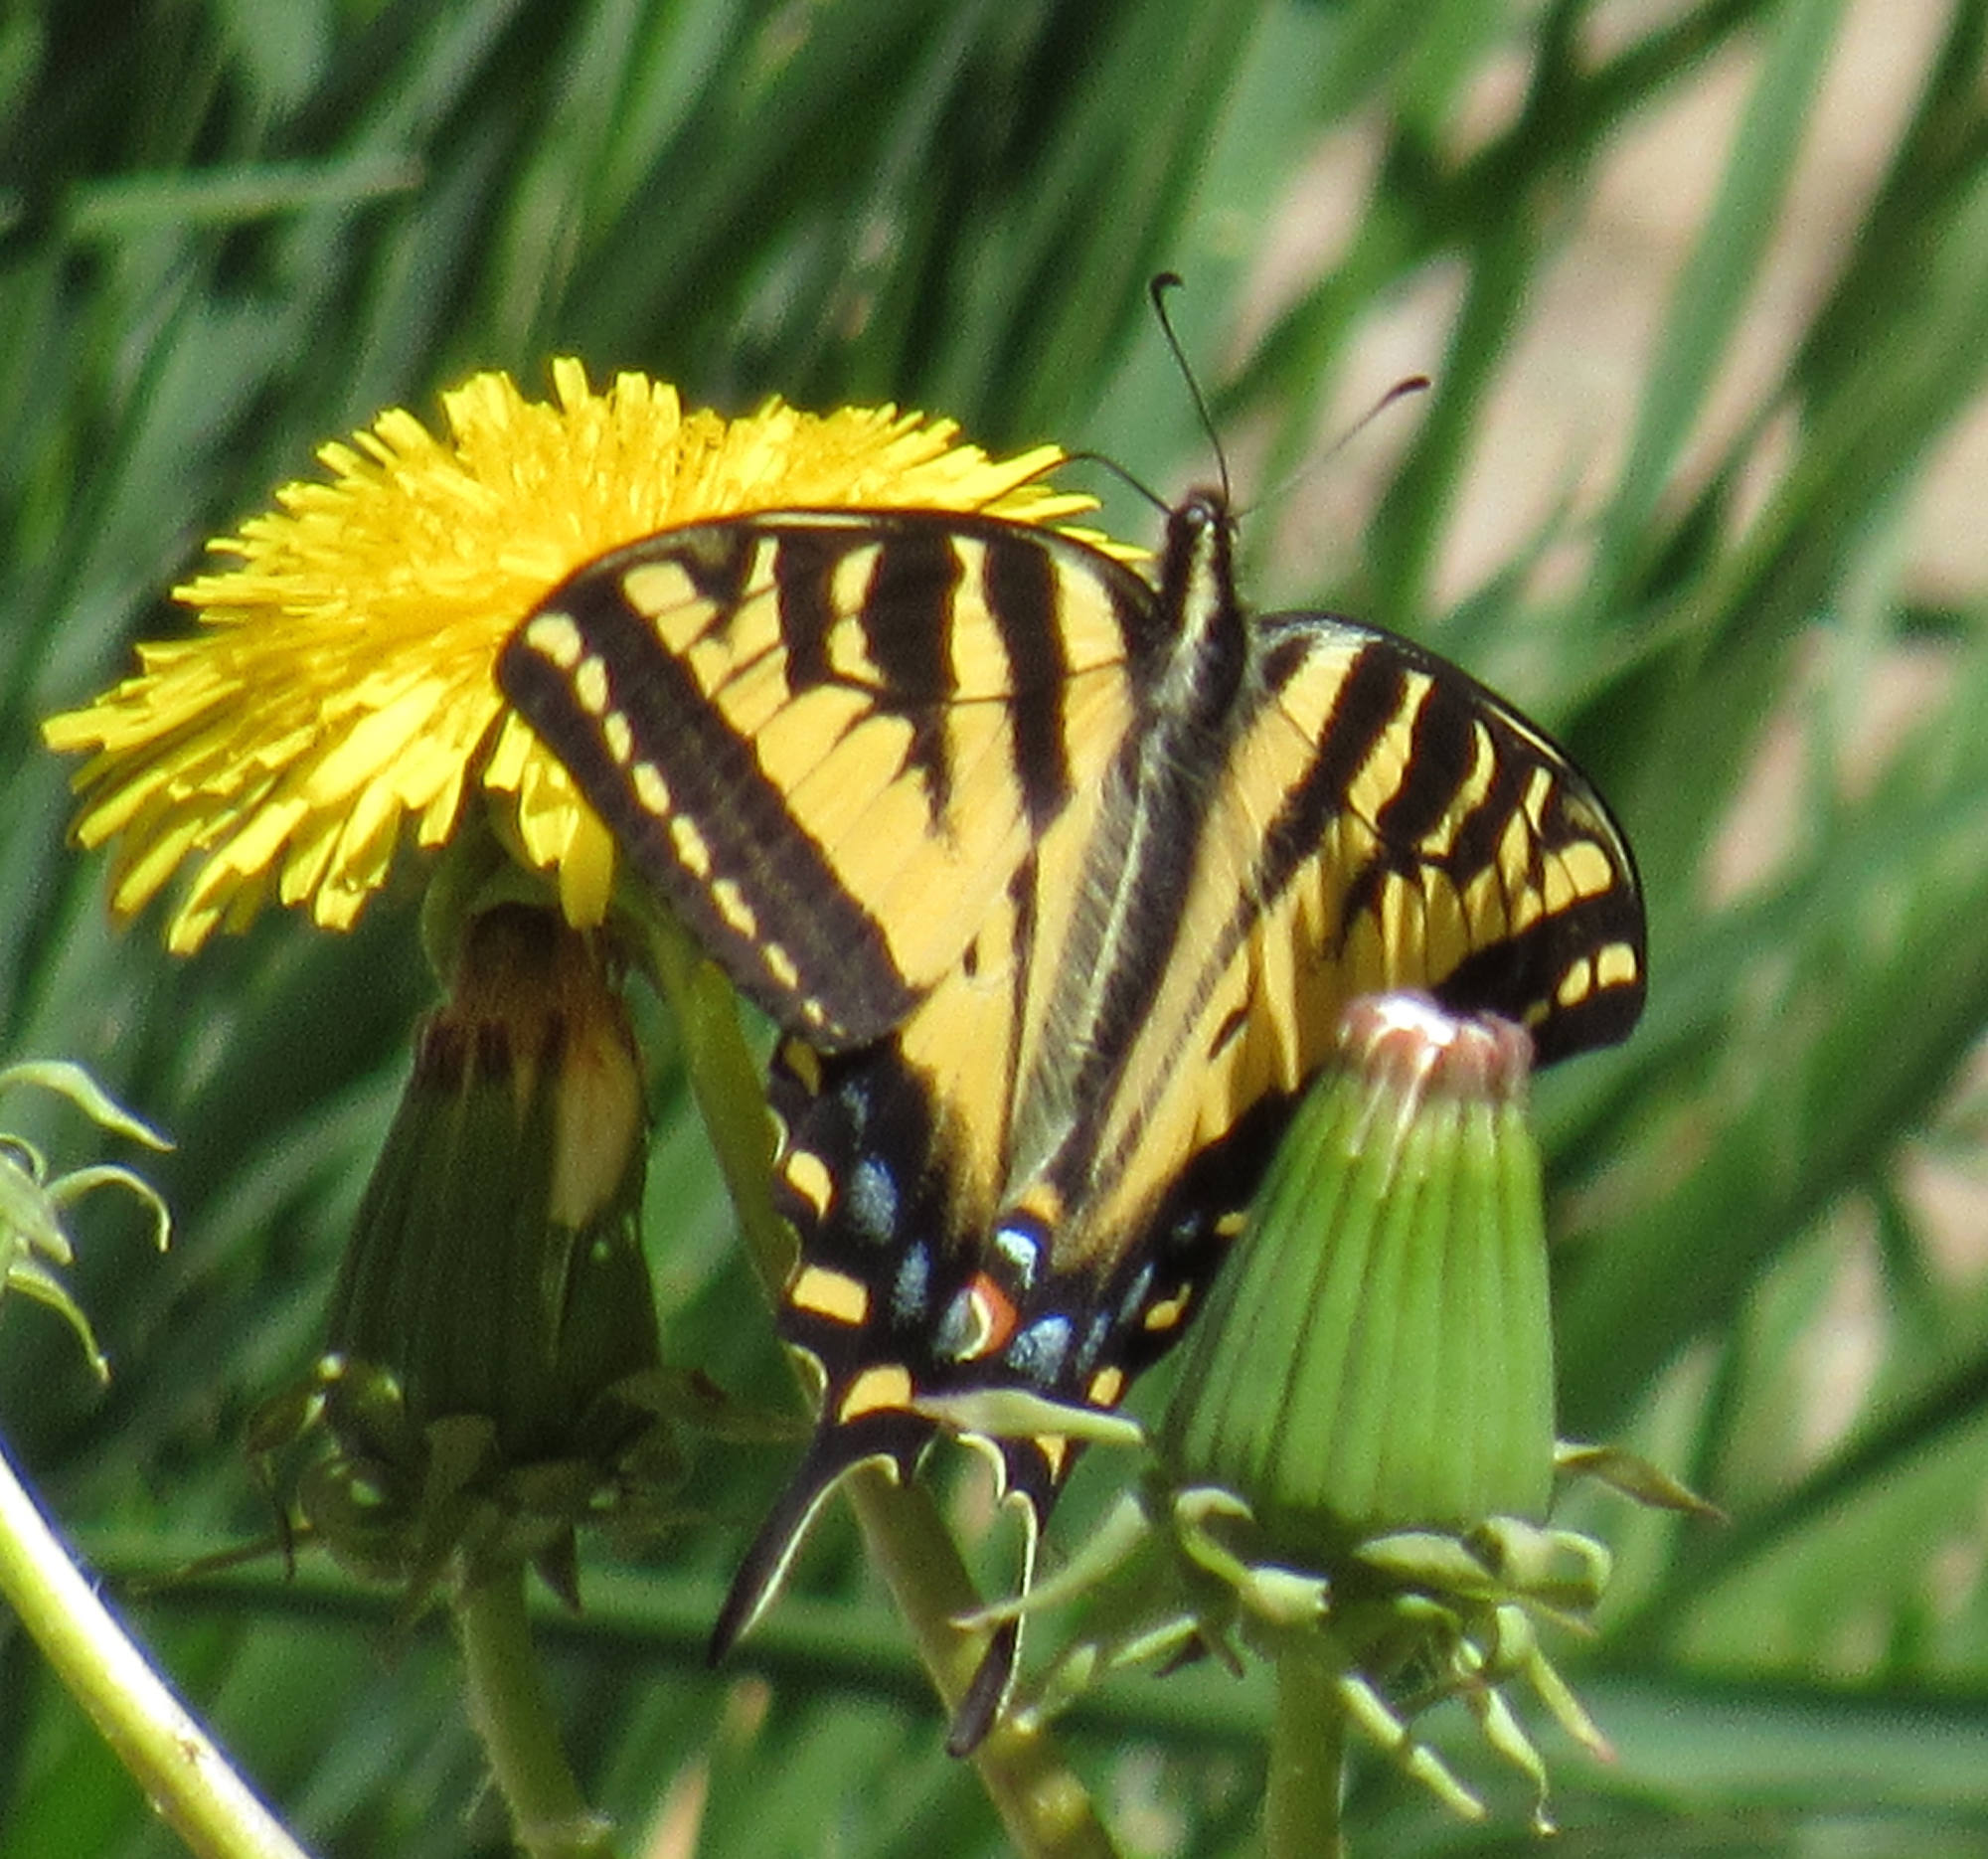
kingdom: Animalia
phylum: Arthropoda
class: Insecta
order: Lepidoptera
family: Papilionidae
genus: Papilio
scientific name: Papilio rutulus
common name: Western tiger swallowtail
